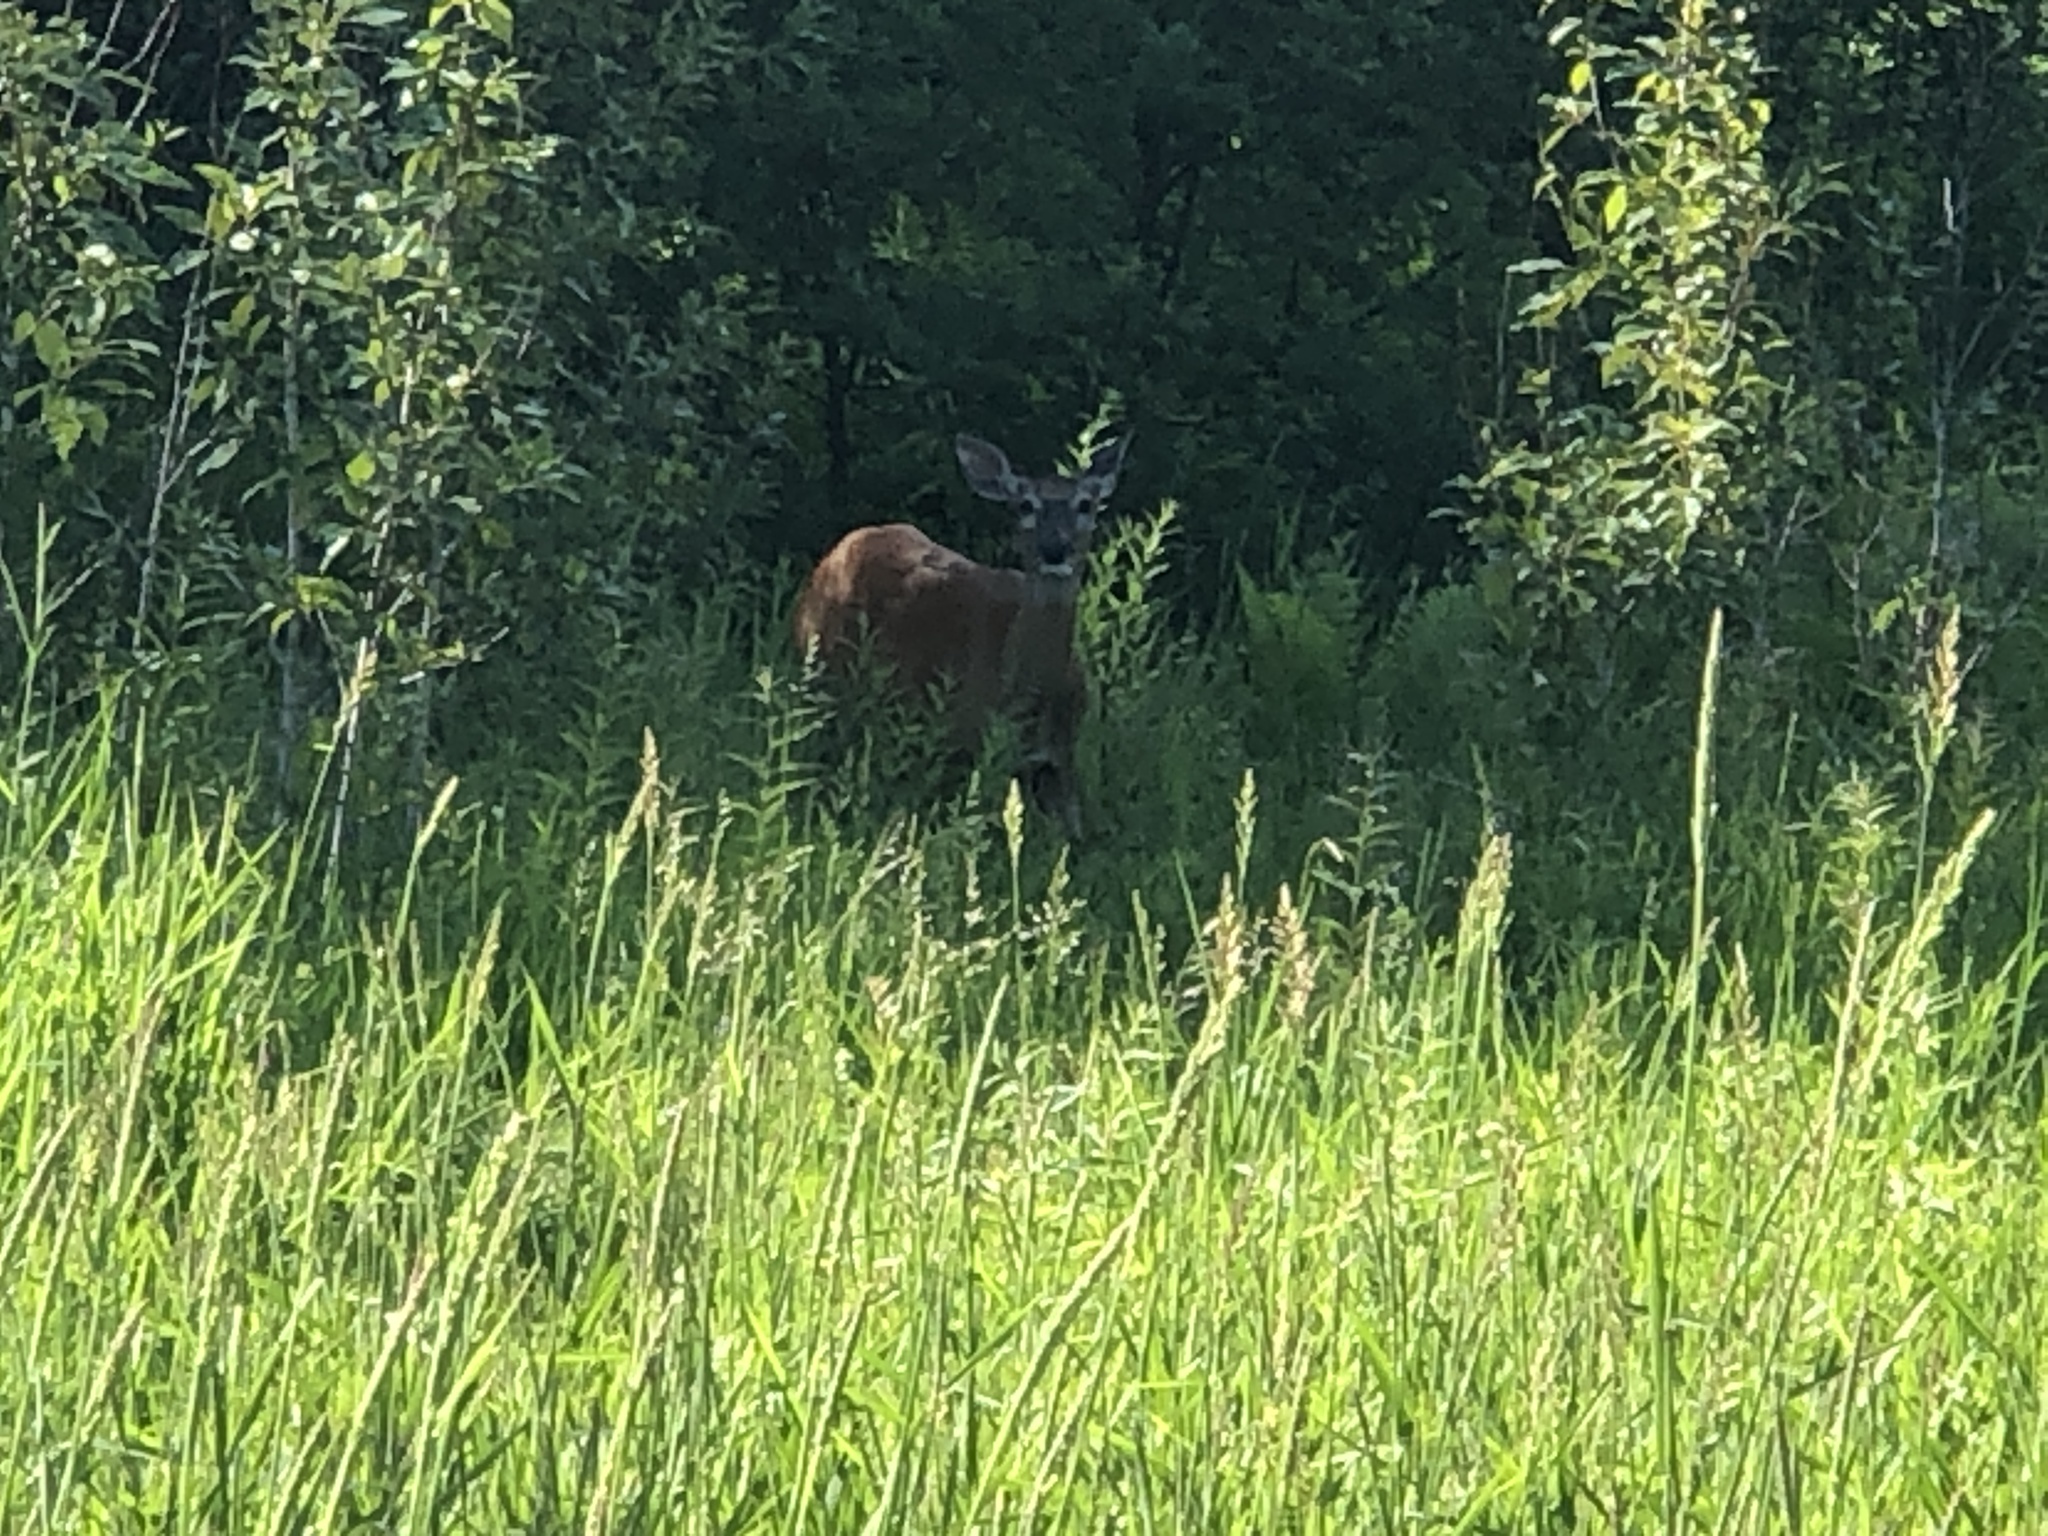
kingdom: Animalia
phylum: Chordata
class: Mammalia
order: Artiodactyla
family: Cervidae
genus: Odocoileus
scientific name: Odocoileus virginianus
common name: White-tailed deer
